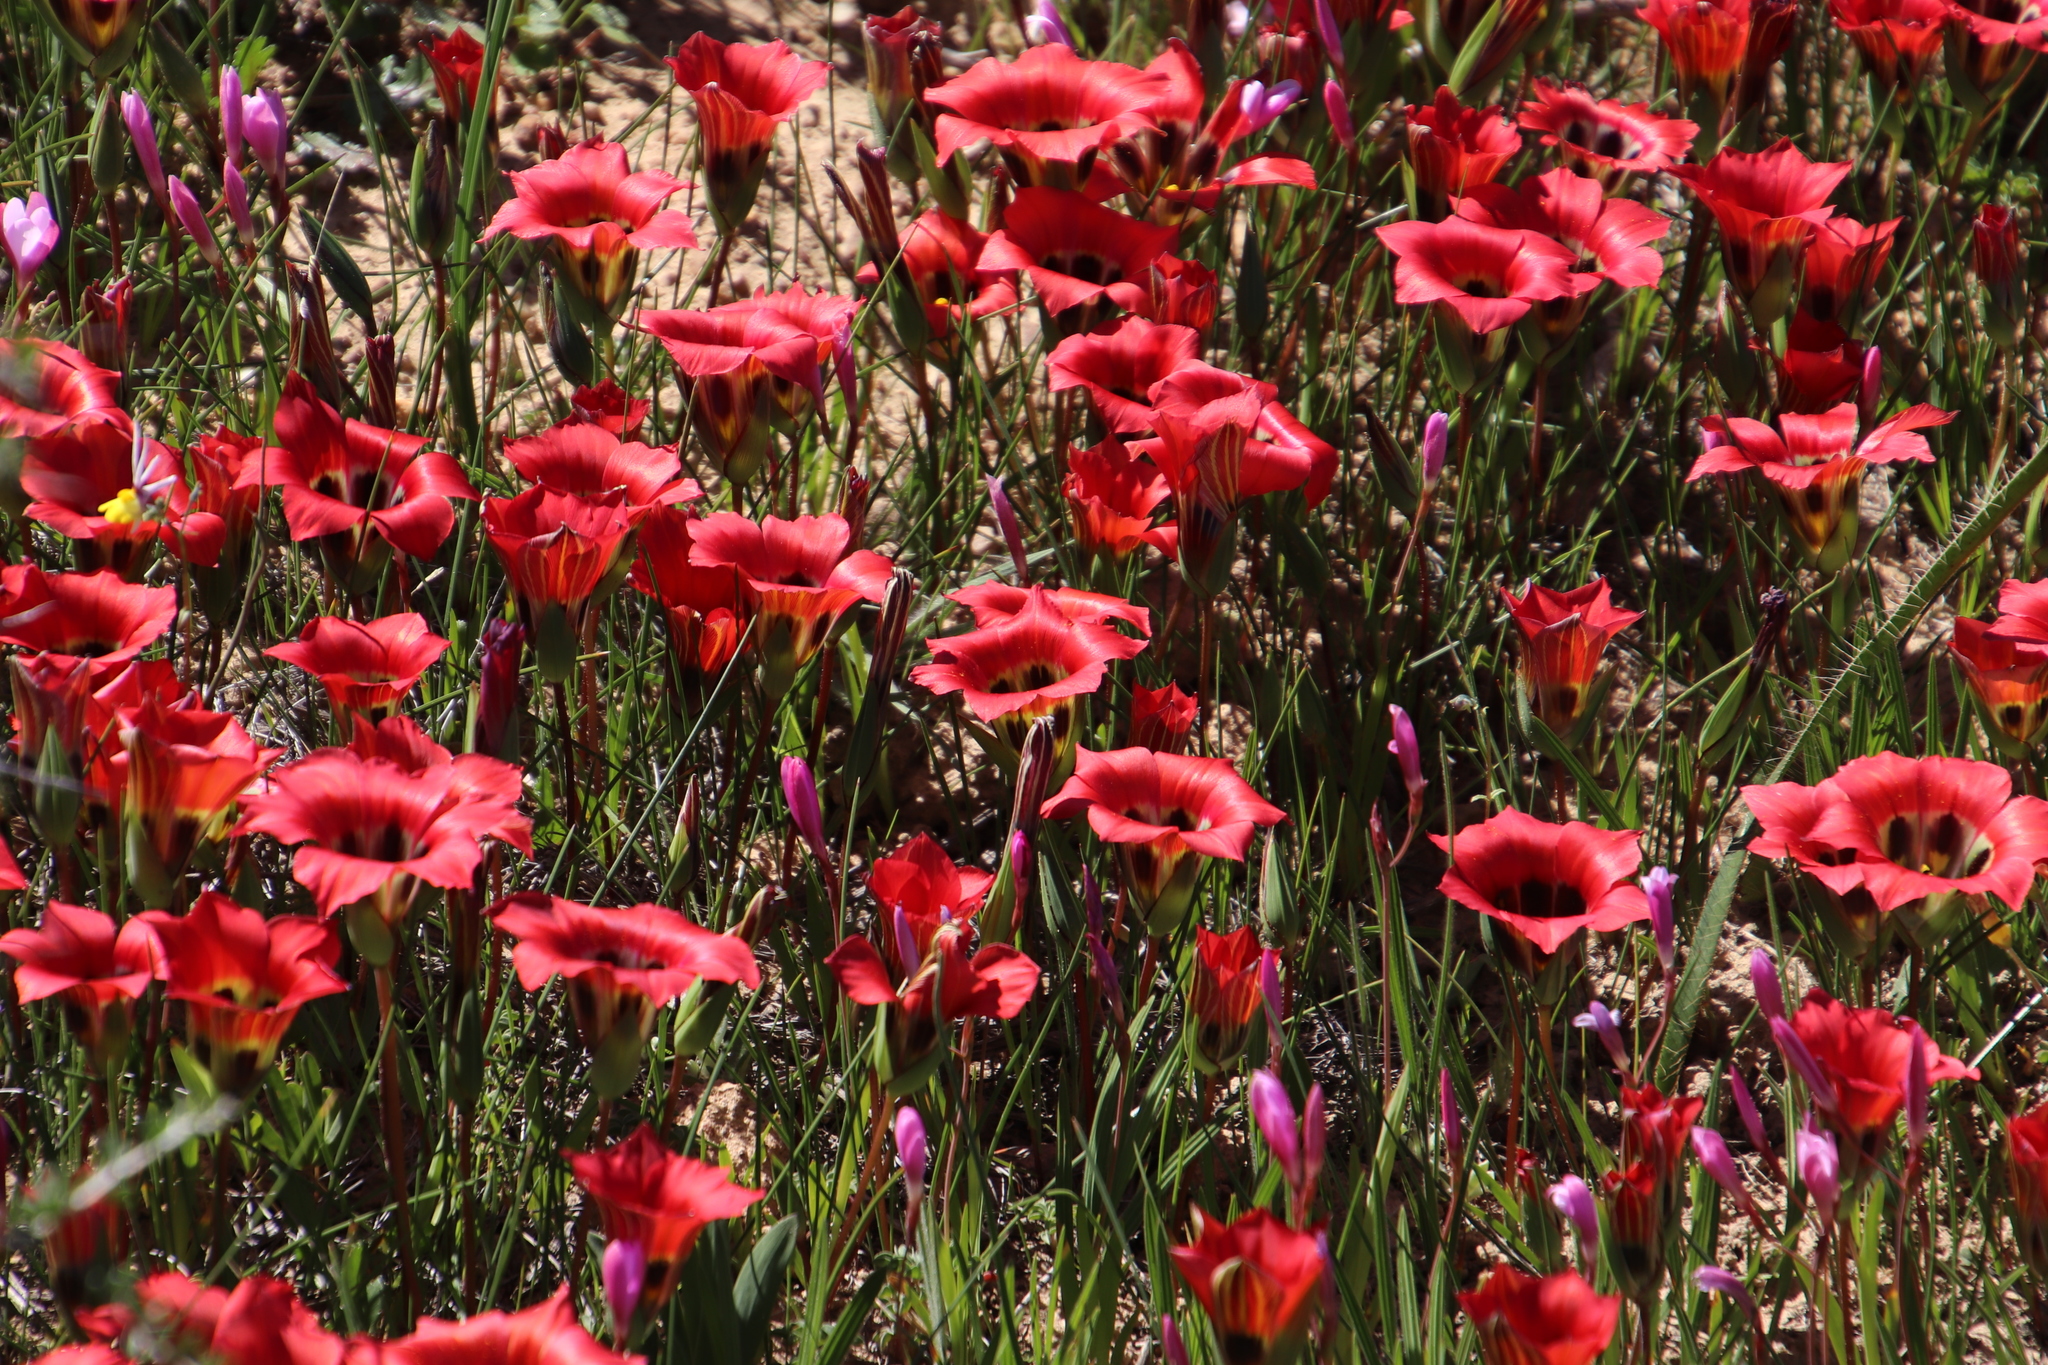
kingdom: Plantae
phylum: Tracheophyta
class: Liliopsida
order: Asparagales
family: Iridaceae
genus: Romulea
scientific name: Romulea sabulosa
